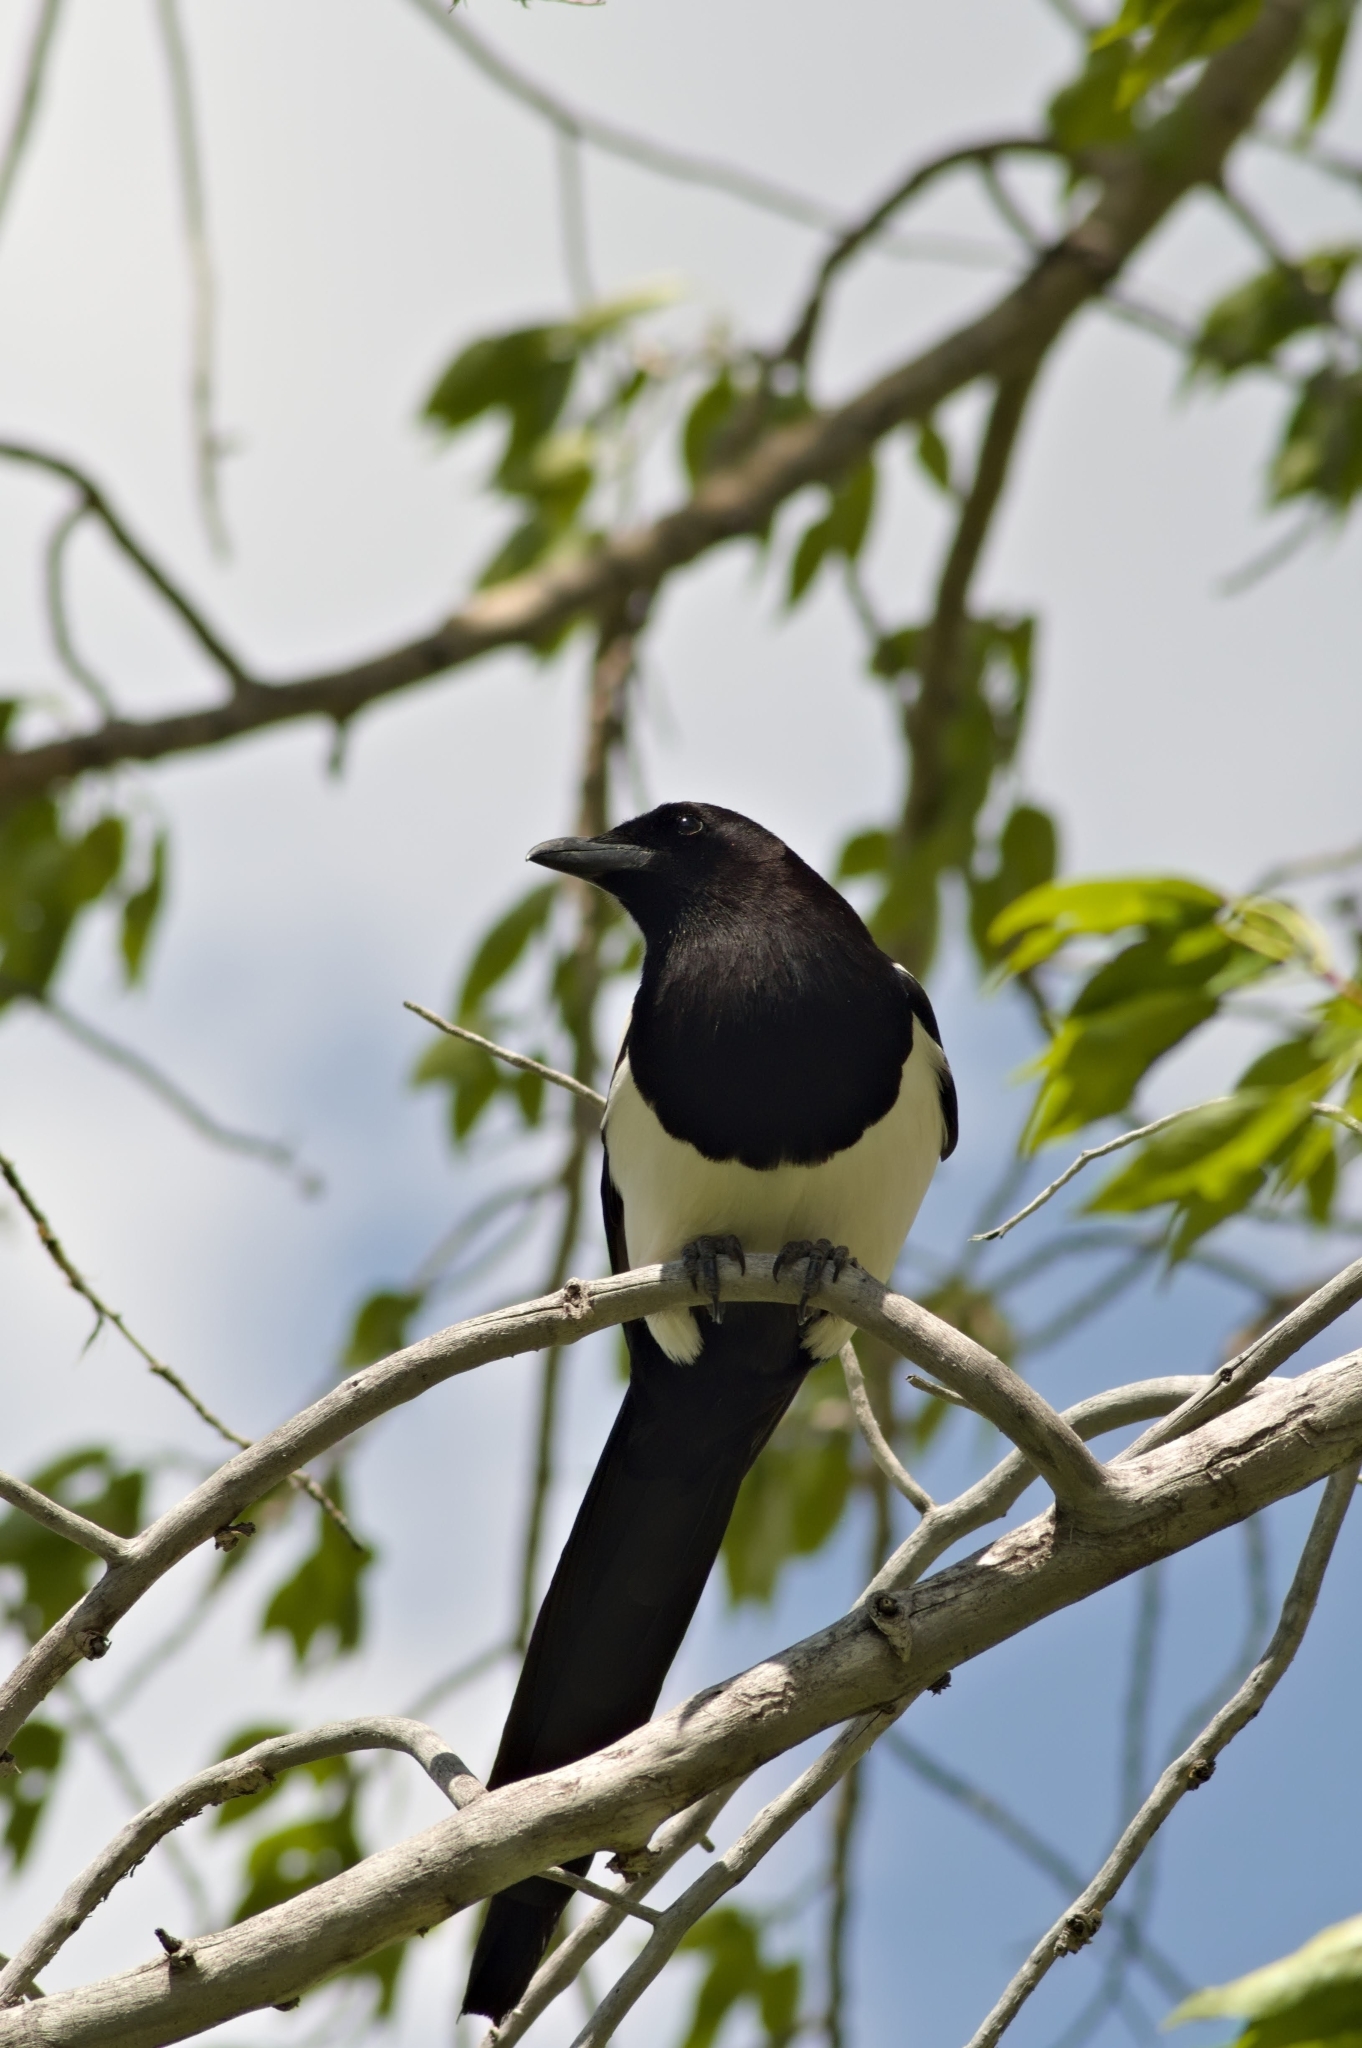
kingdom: Animalia
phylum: Chordata
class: Aves
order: Passeriformes
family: Corvidae
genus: Pica
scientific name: Pica hudsonia
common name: Black-billed magpie
